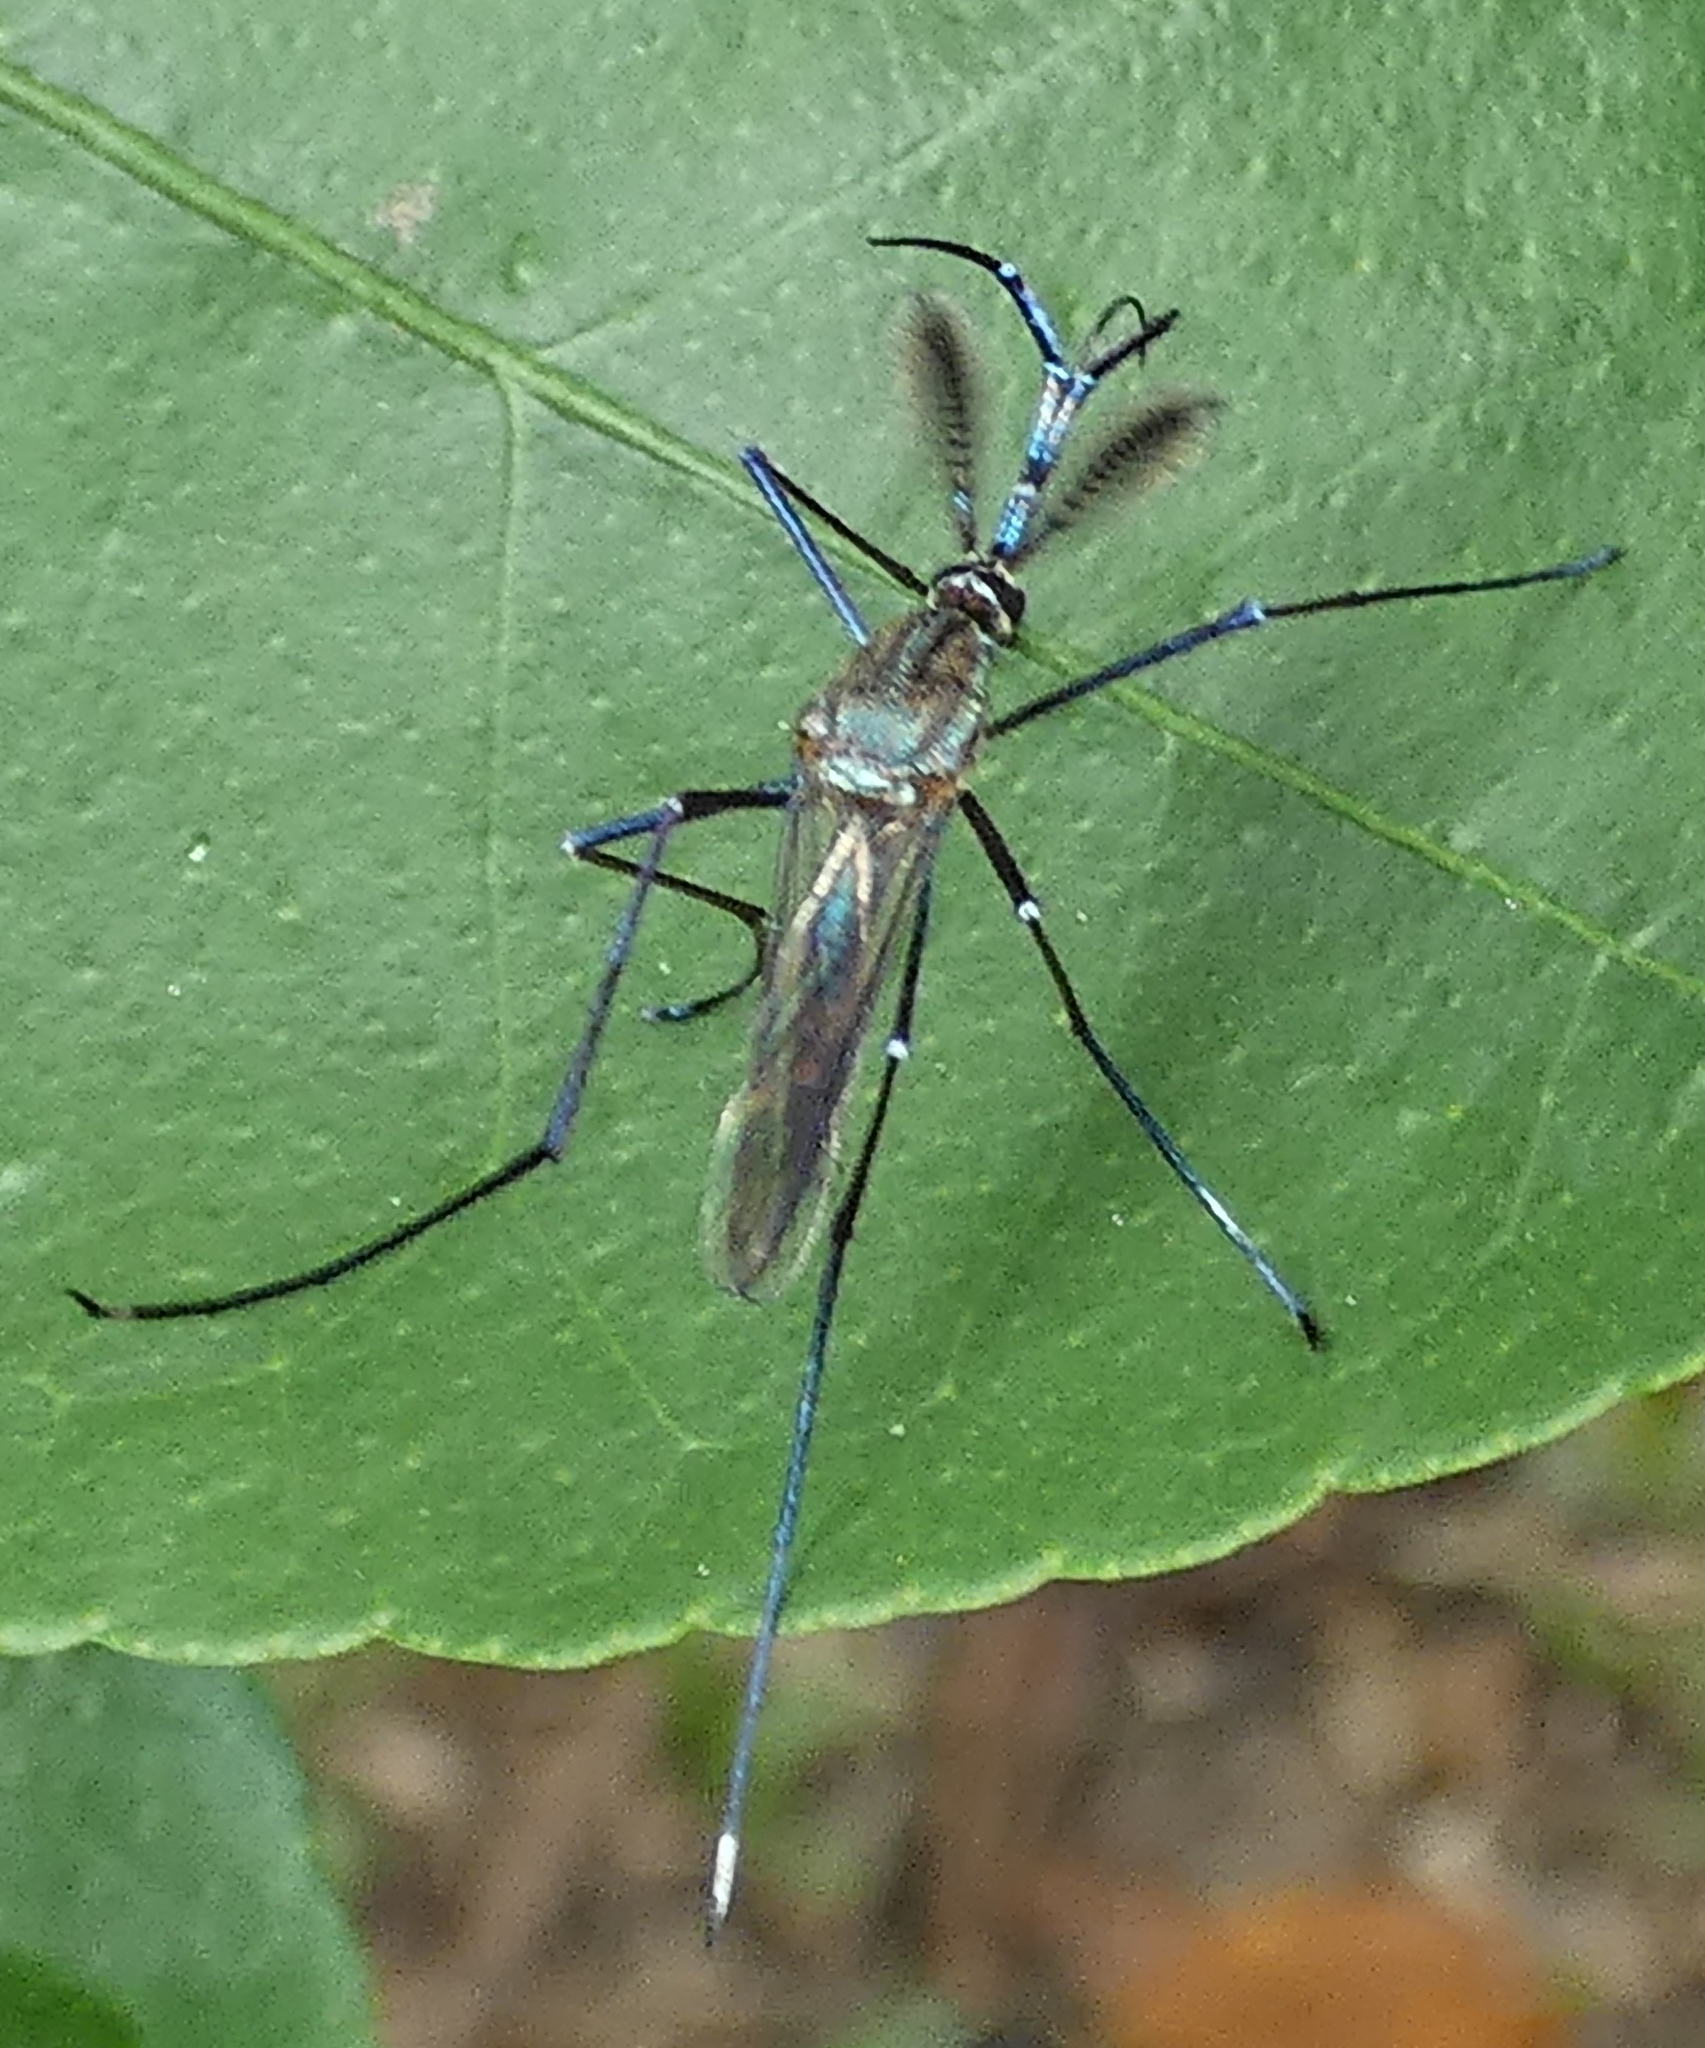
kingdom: Animalia
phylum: Arthropoda
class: Insecta
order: Diptera
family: Culicidae
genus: Toxorhynchites
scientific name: Toxorhynchites theobaldi
